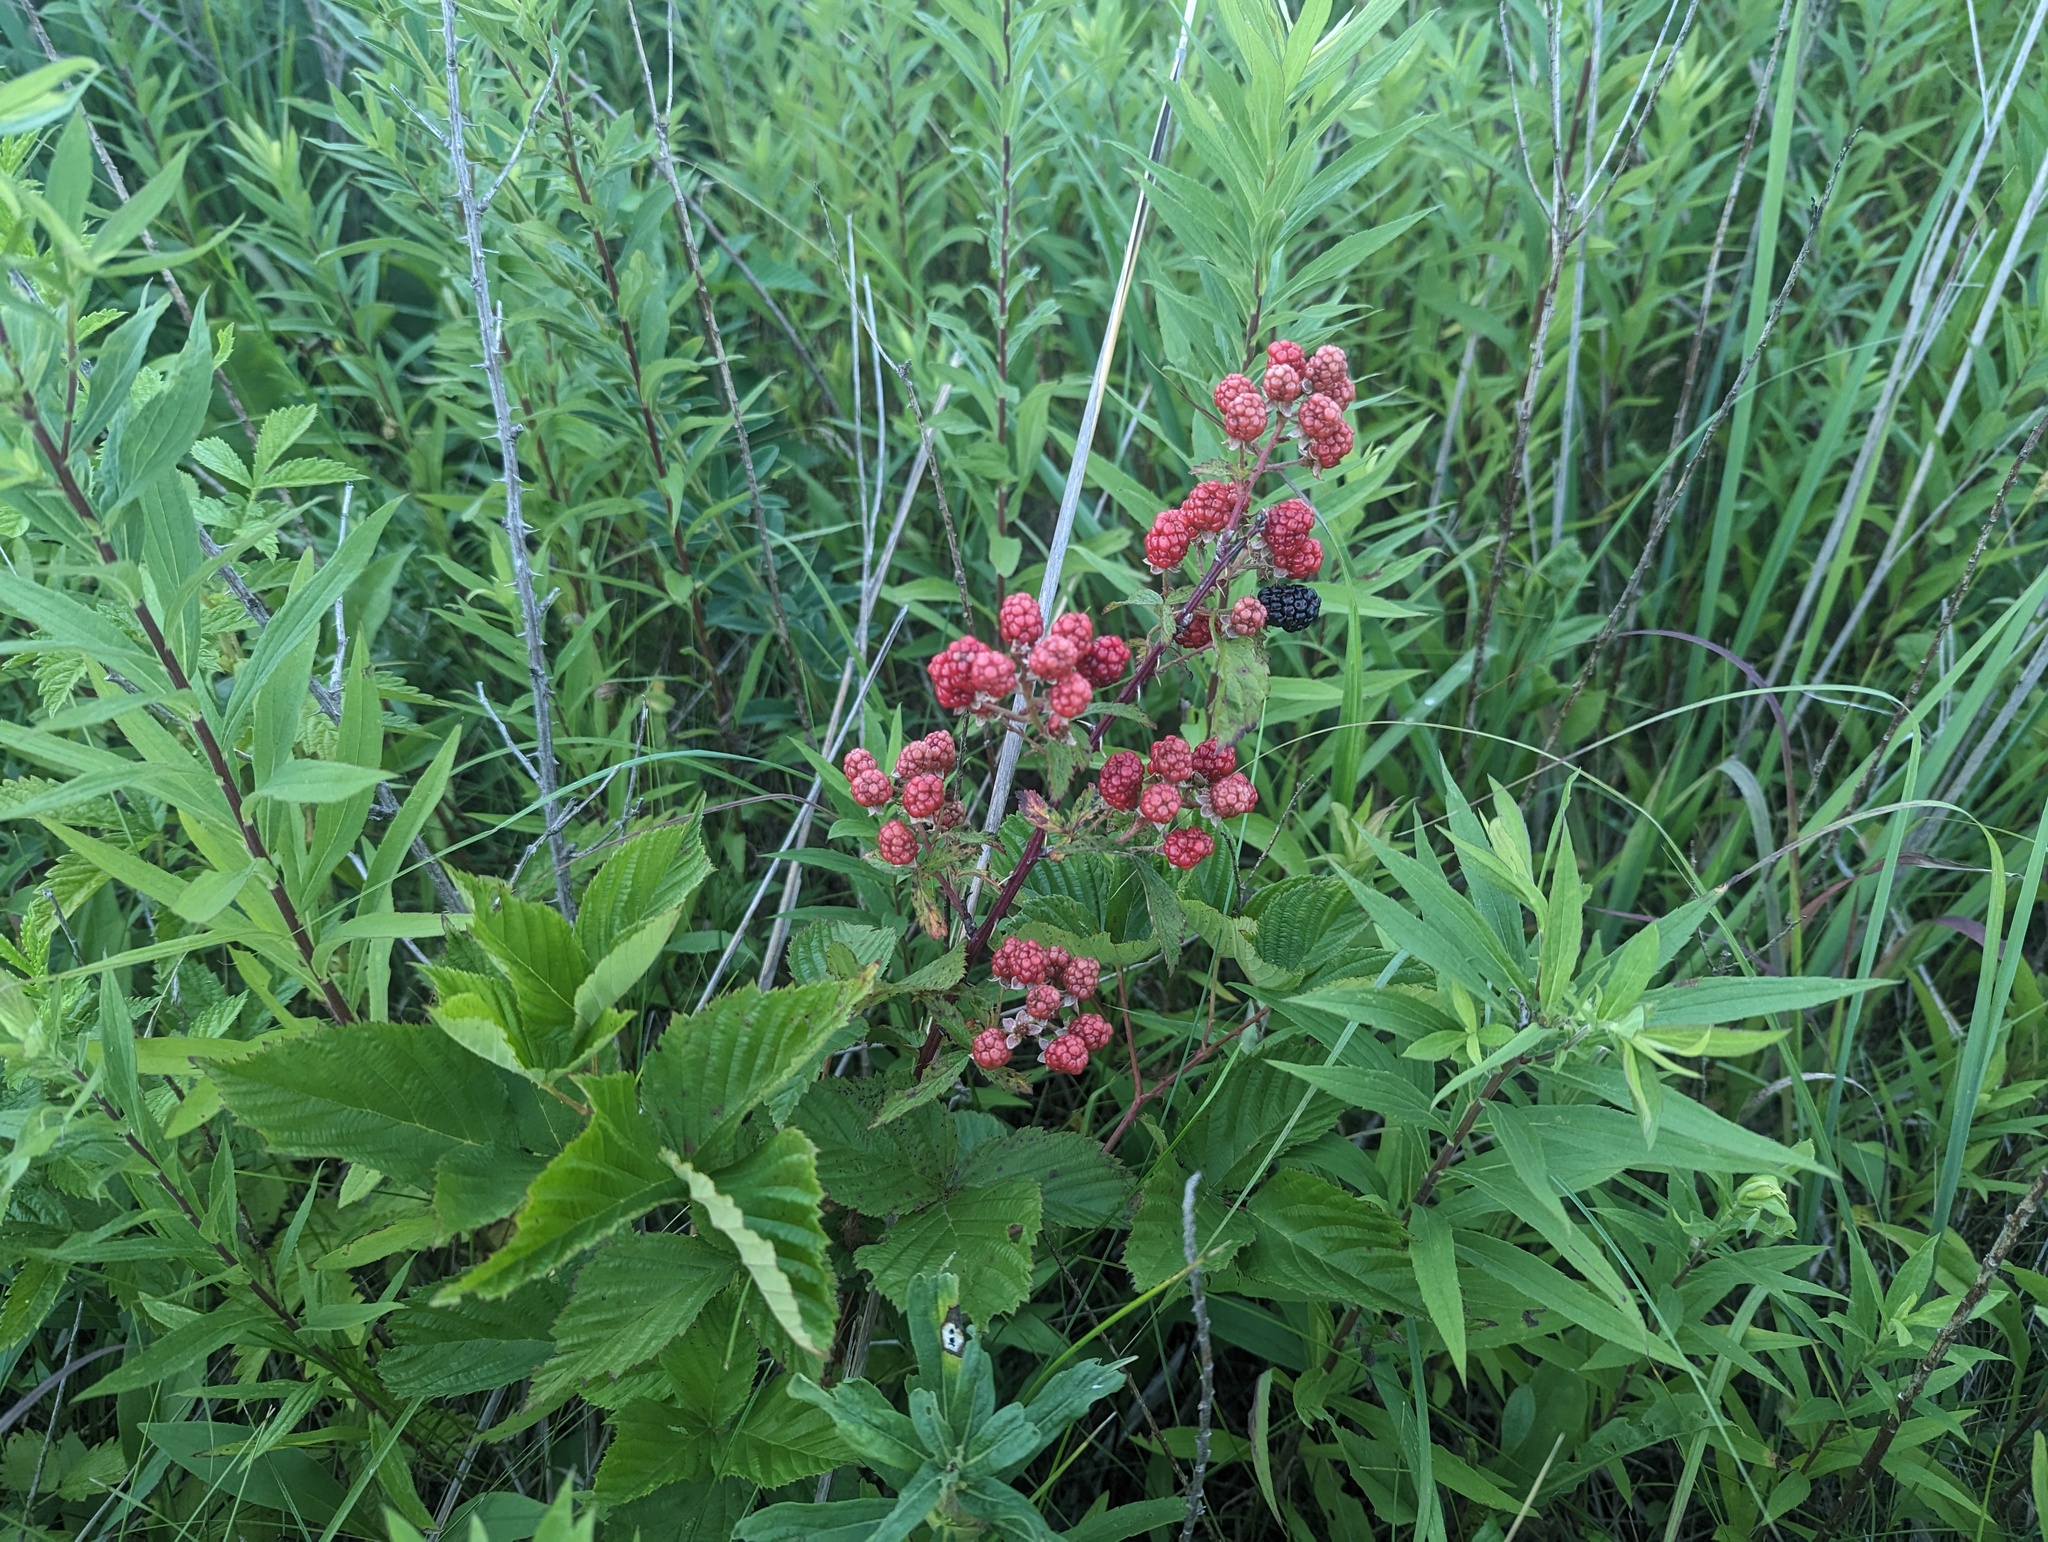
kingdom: Plantae
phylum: Tracheophyta
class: Magnoliopsida
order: Rosales
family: Rosaceae
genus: Rubus
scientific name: Rubus allegheniensis
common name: Allegheny blackberry
